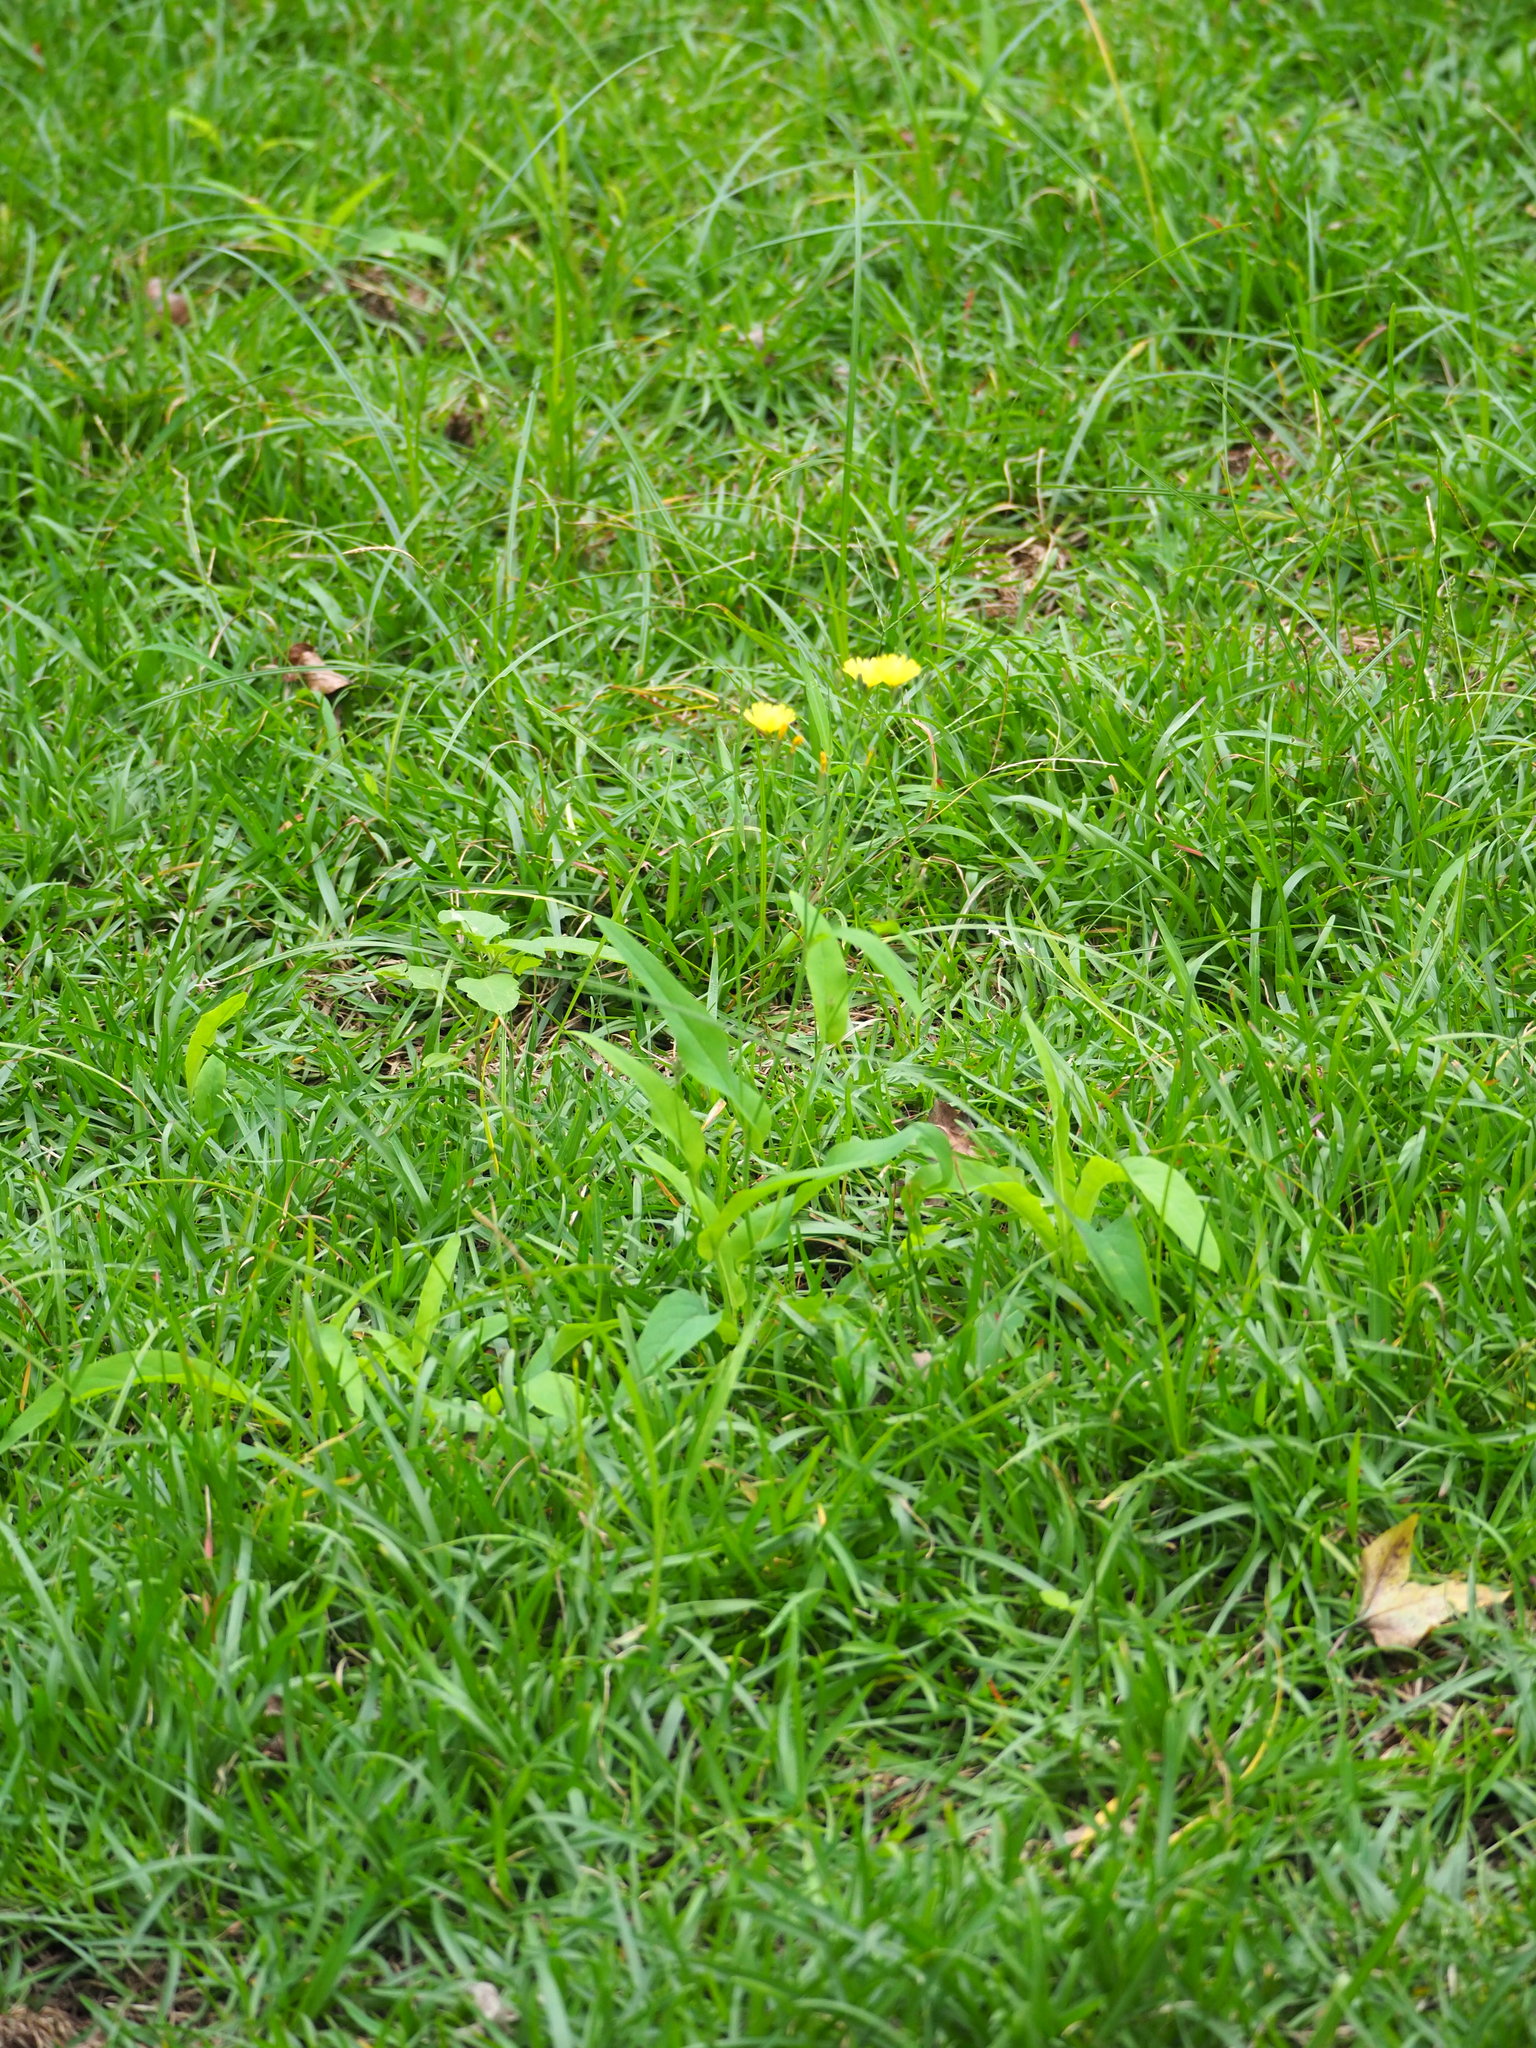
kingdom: Plantae
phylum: Tracheophyta
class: Magnoliopsida
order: Asterales
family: Asteraceae
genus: Ixeris
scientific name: Ixeris chinensis
